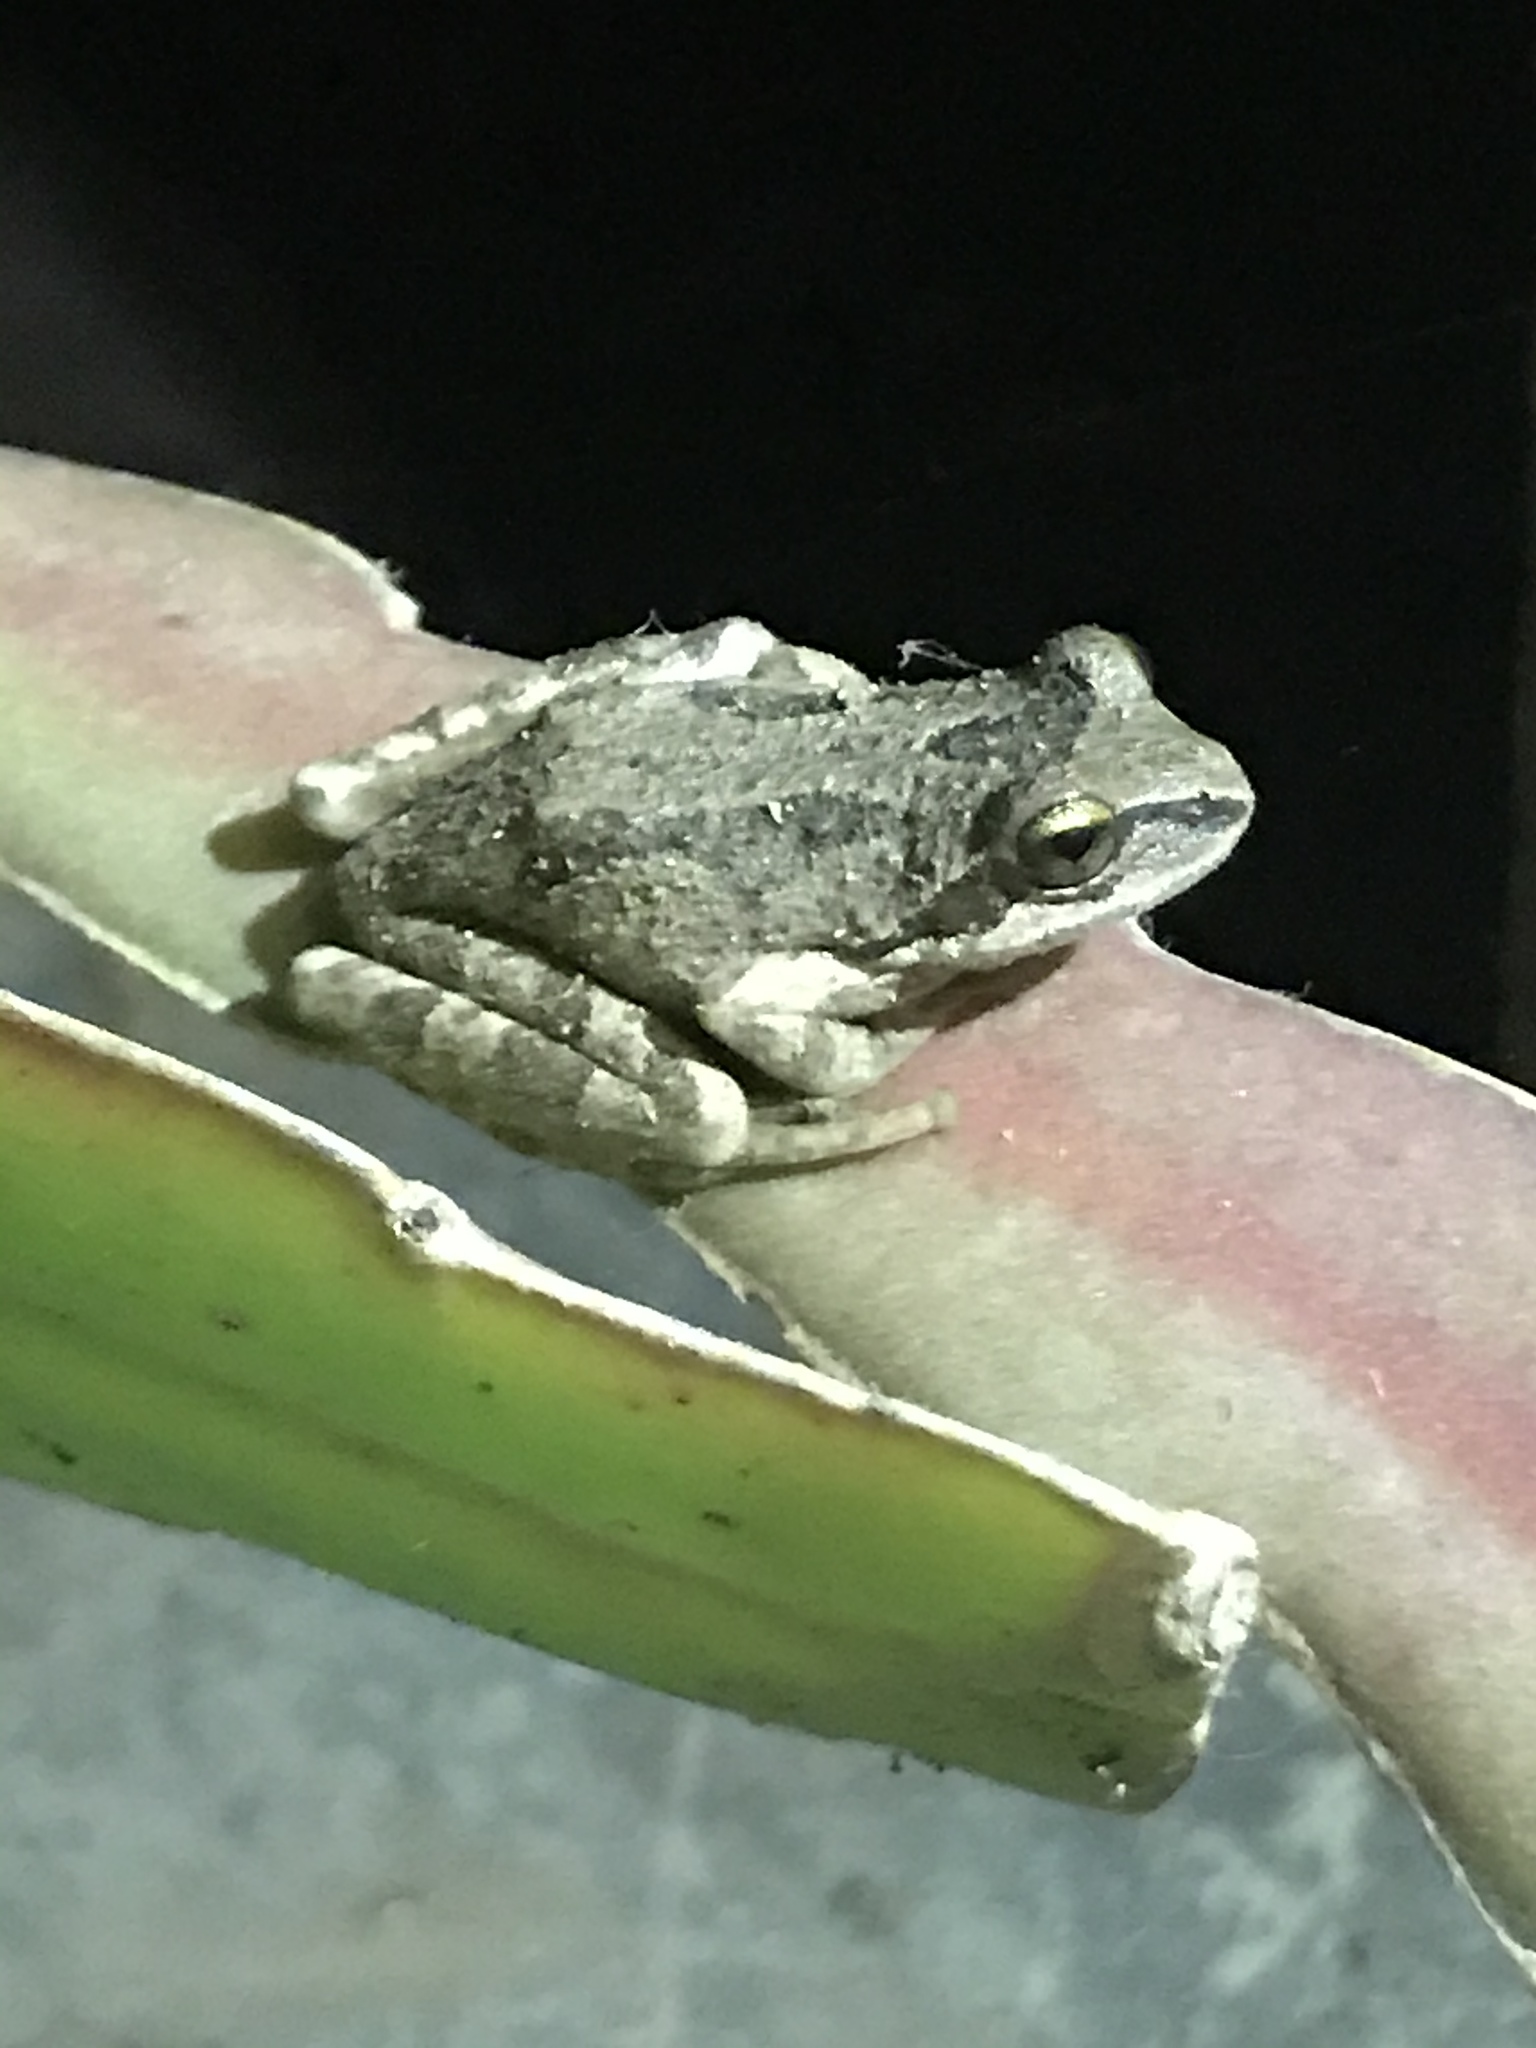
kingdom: Animalia
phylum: Chordata
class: Amphibia
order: Anura
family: Hylidae
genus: Pseudacris
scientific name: Pseudacris regilla
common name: Pacific chorus frog
